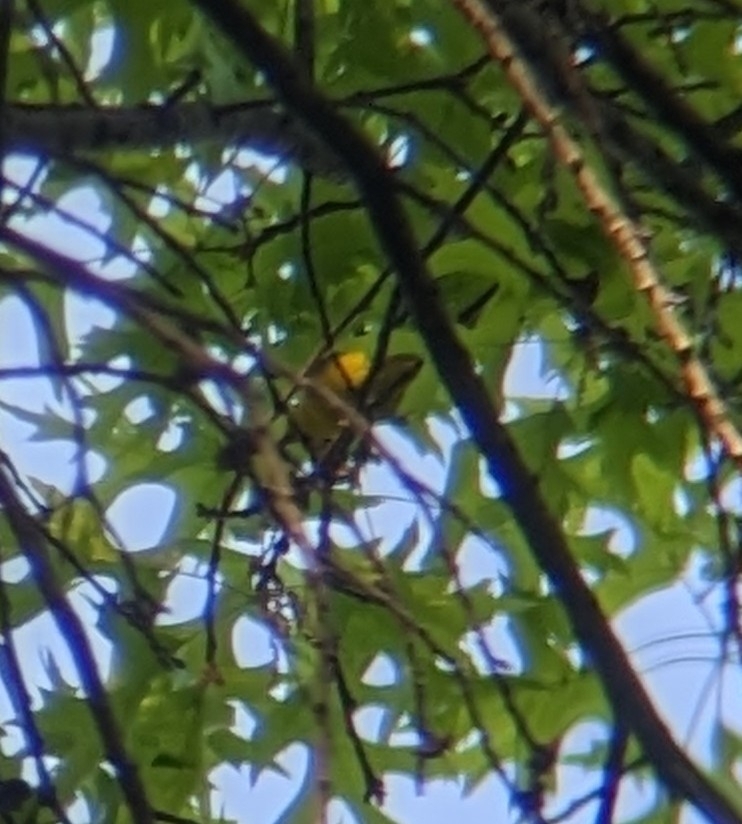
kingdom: Animalia
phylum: Chordata
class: Aves
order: Passeriformes
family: Parulidae
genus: Vermivora
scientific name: Vermivora cyanoptera
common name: Blue-winged warbler
